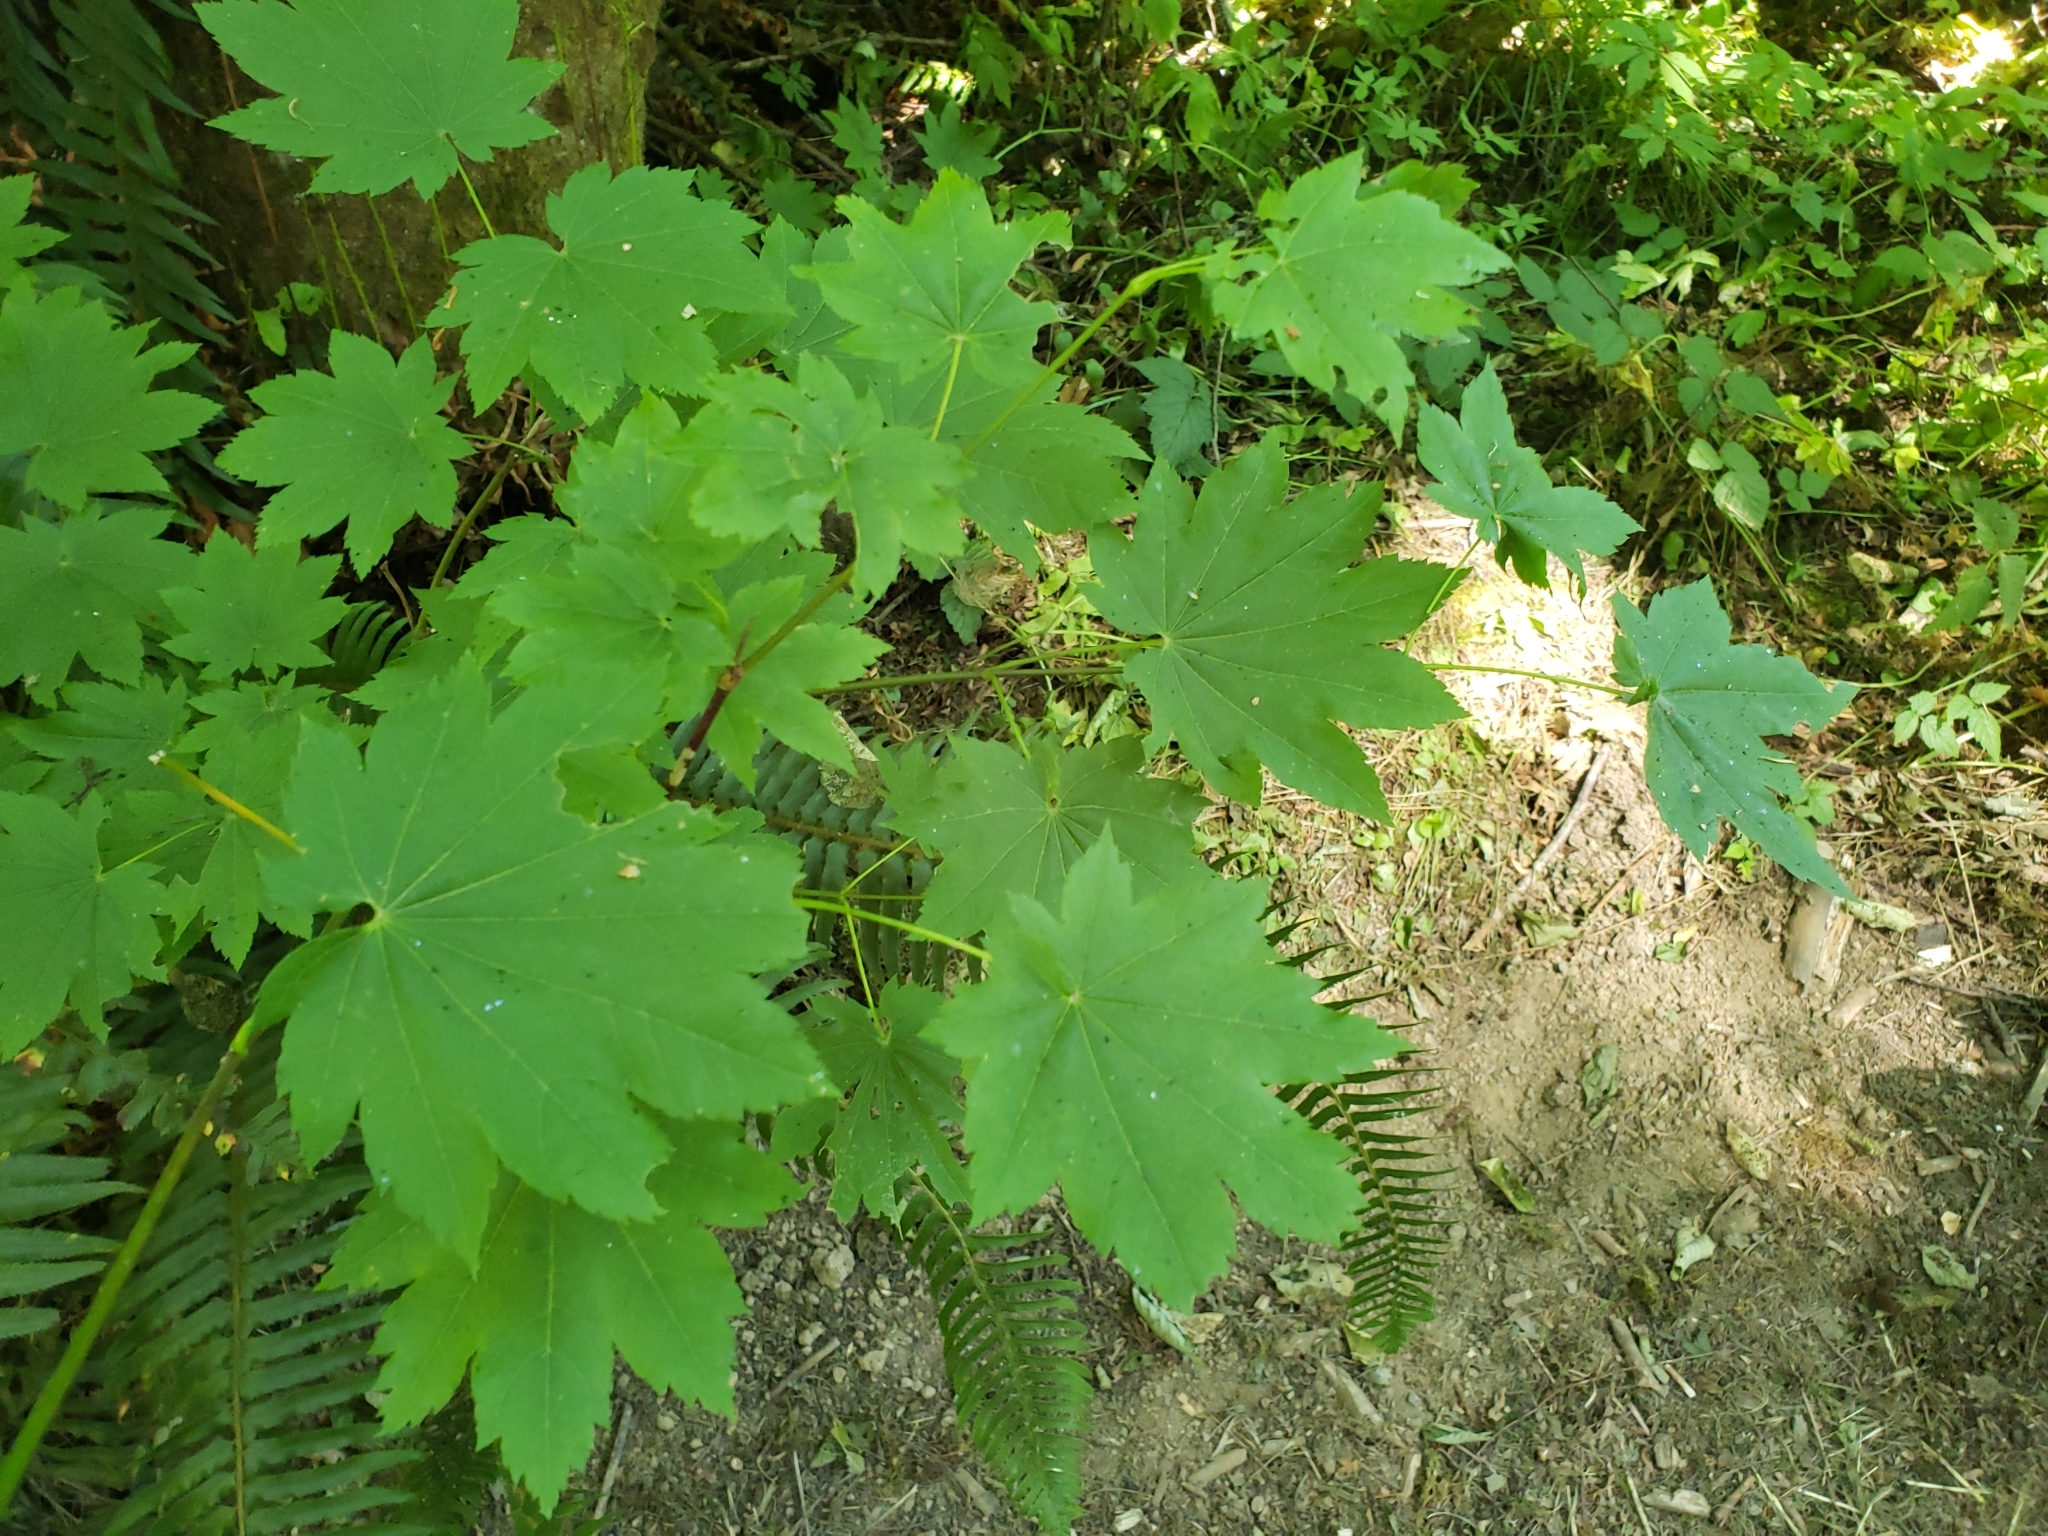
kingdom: Plantae
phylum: Tracheophyta
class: Magnoliopsida
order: Sapindales
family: Sapindaceae
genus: Acer
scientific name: Acer circinatum
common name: Vine maple
